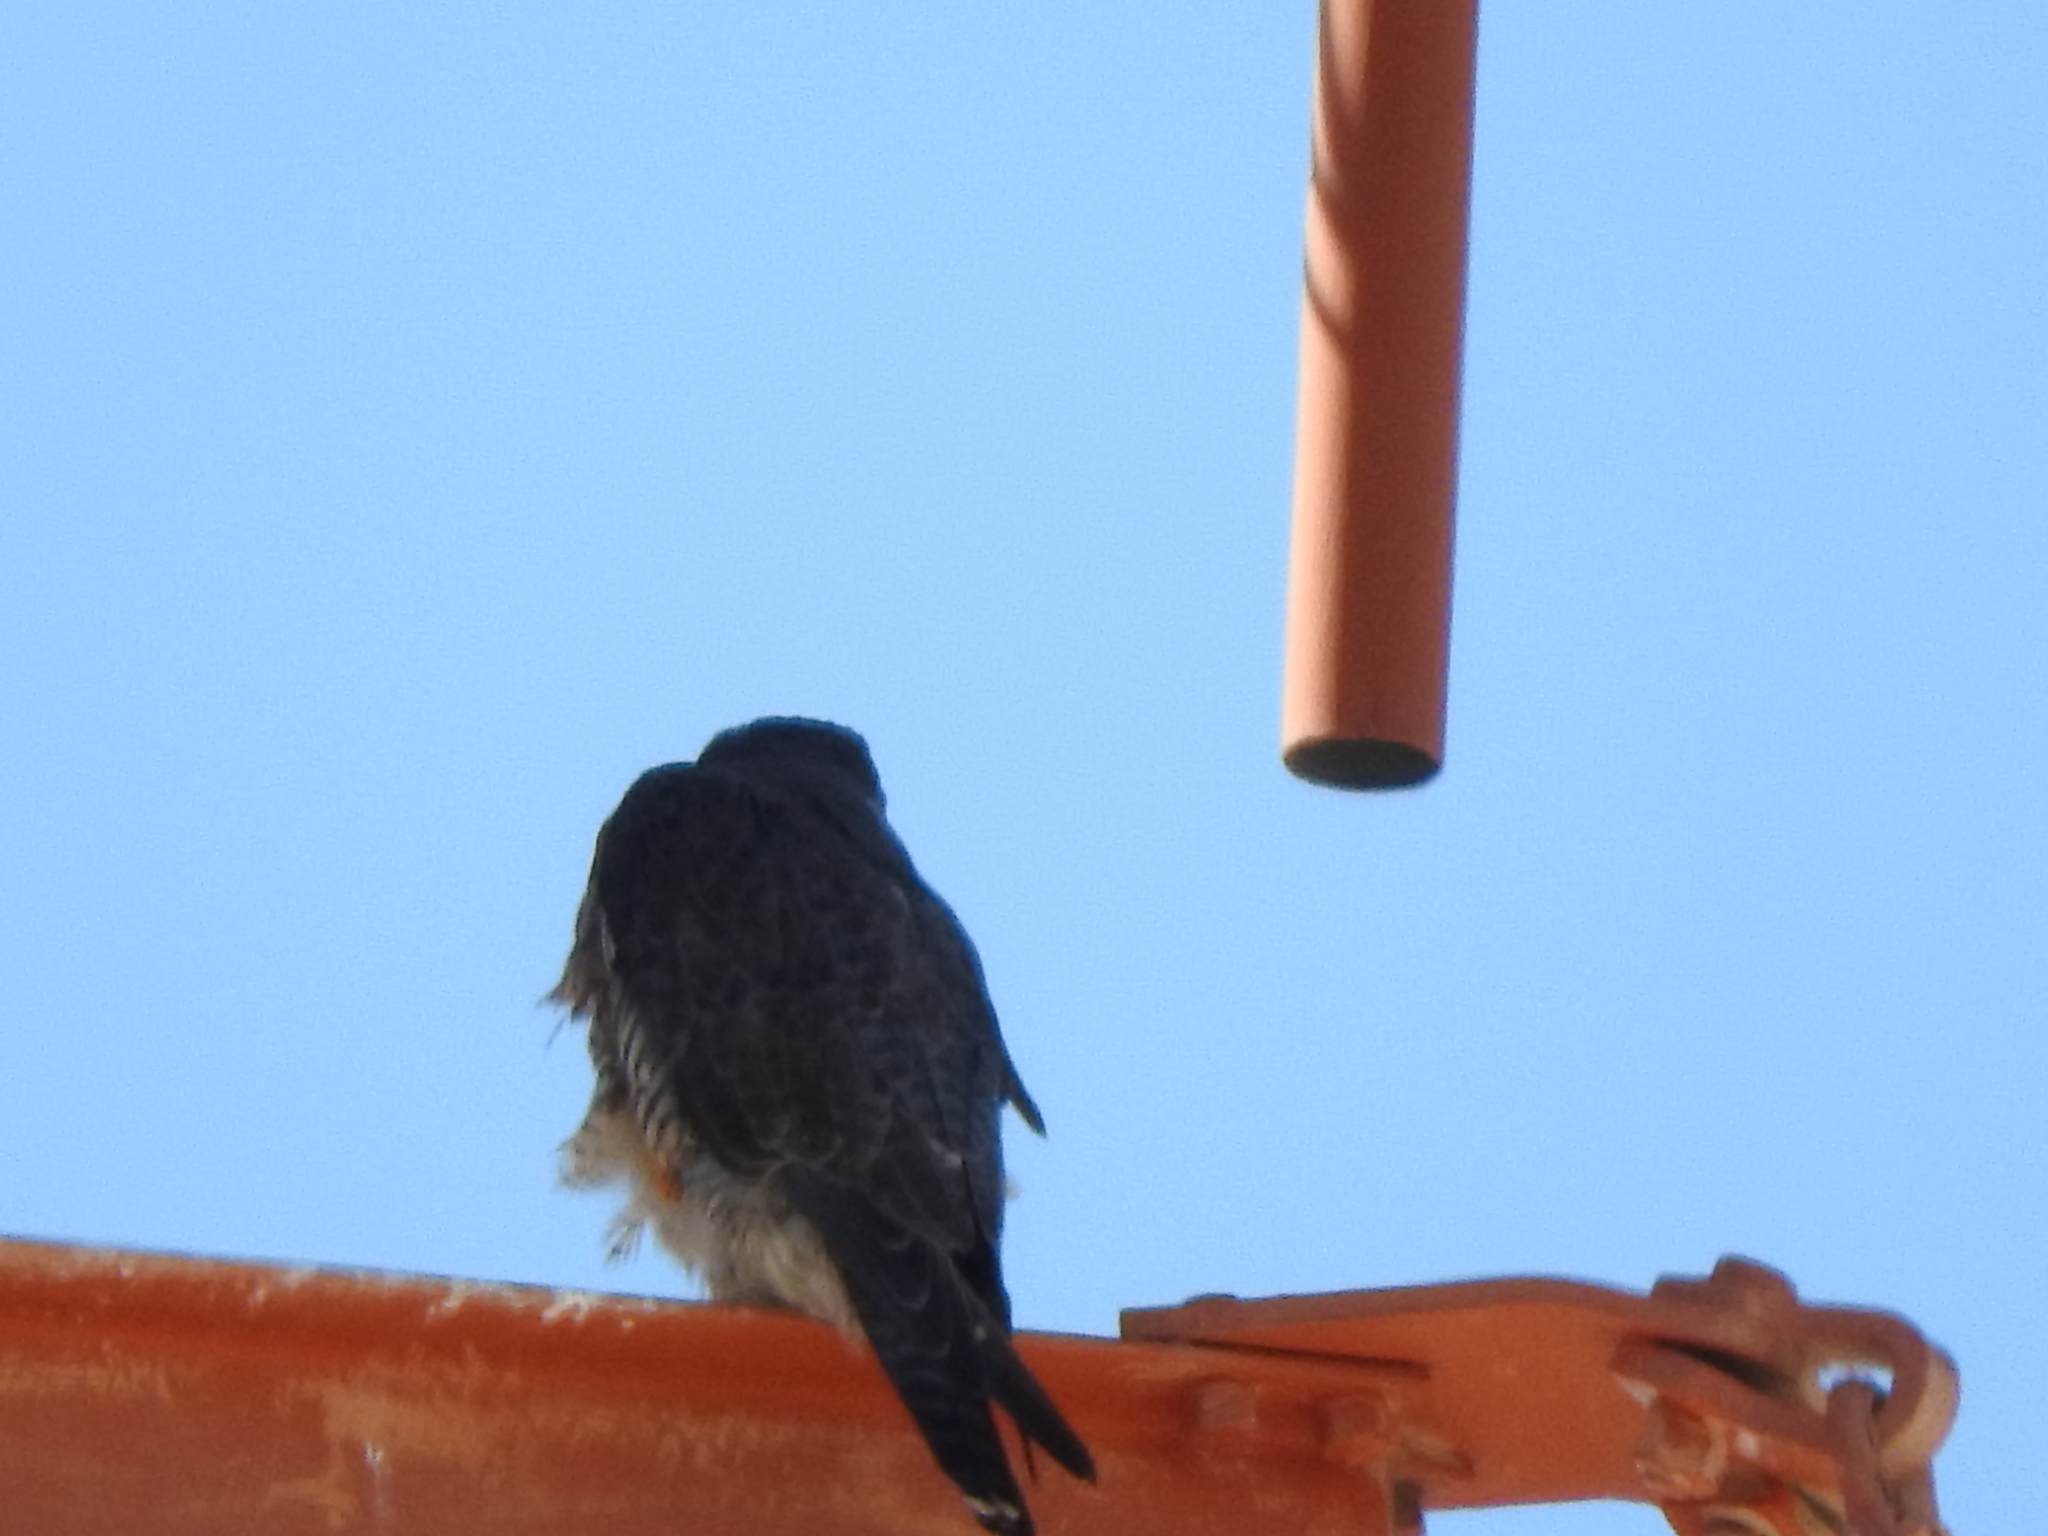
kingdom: Animalia
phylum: Chordata
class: Aves
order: Falconiformes
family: Falconidae
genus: Falco
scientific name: Falco peregrinus
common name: Peregrine falcon
